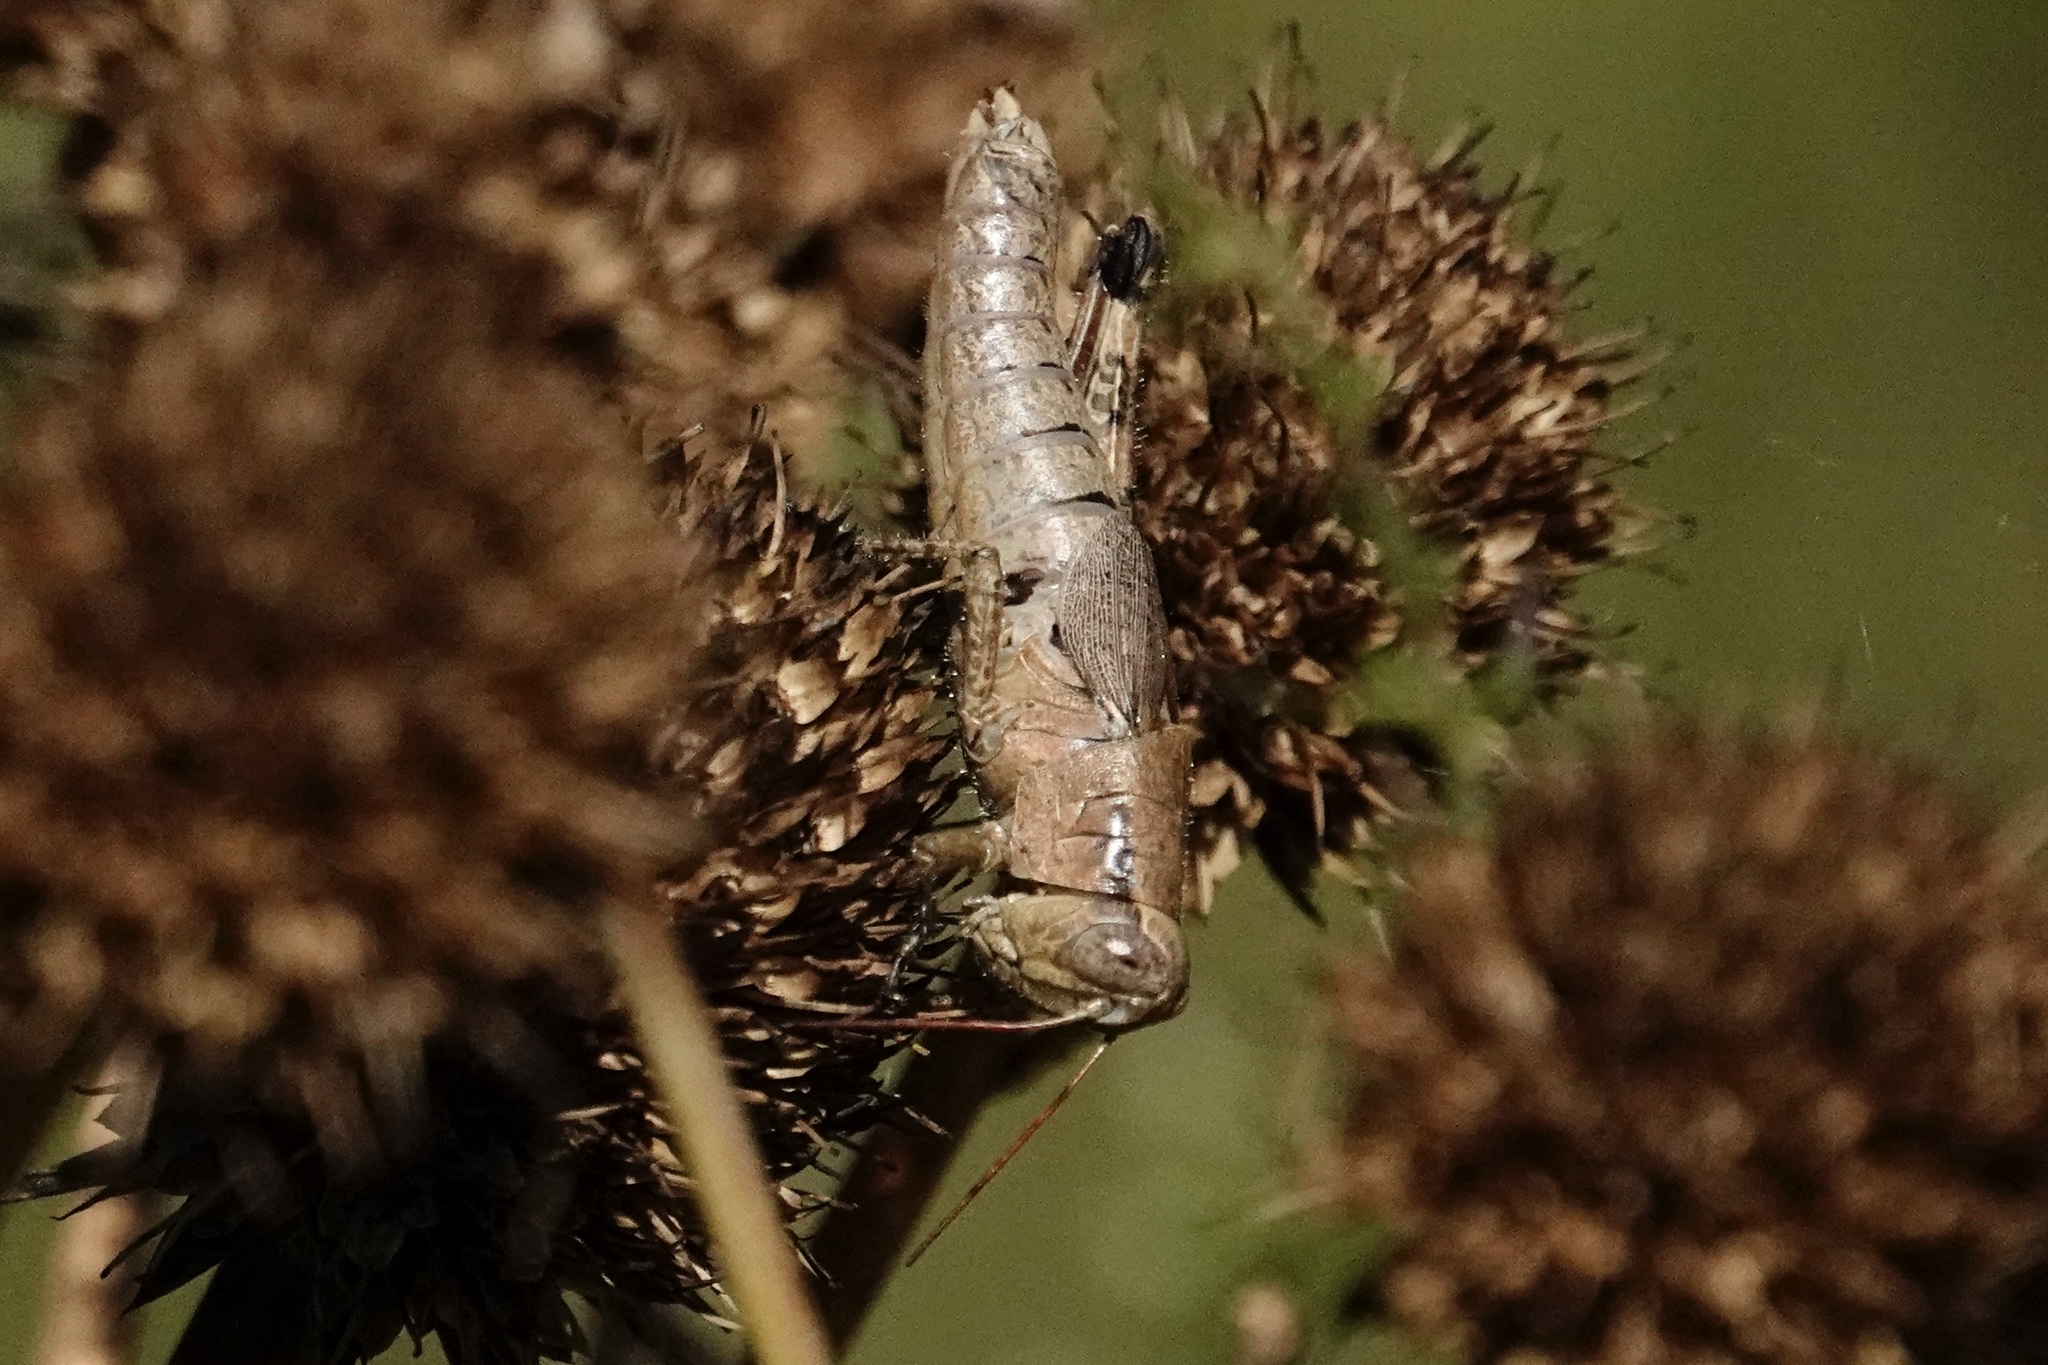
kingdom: Animalia
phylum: Arthropoda
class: Insecta
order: Orthoptera
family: Acrididae
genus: Melanoplus
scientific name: Melanoplus scudderi
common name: Scudder's short-winged locust
